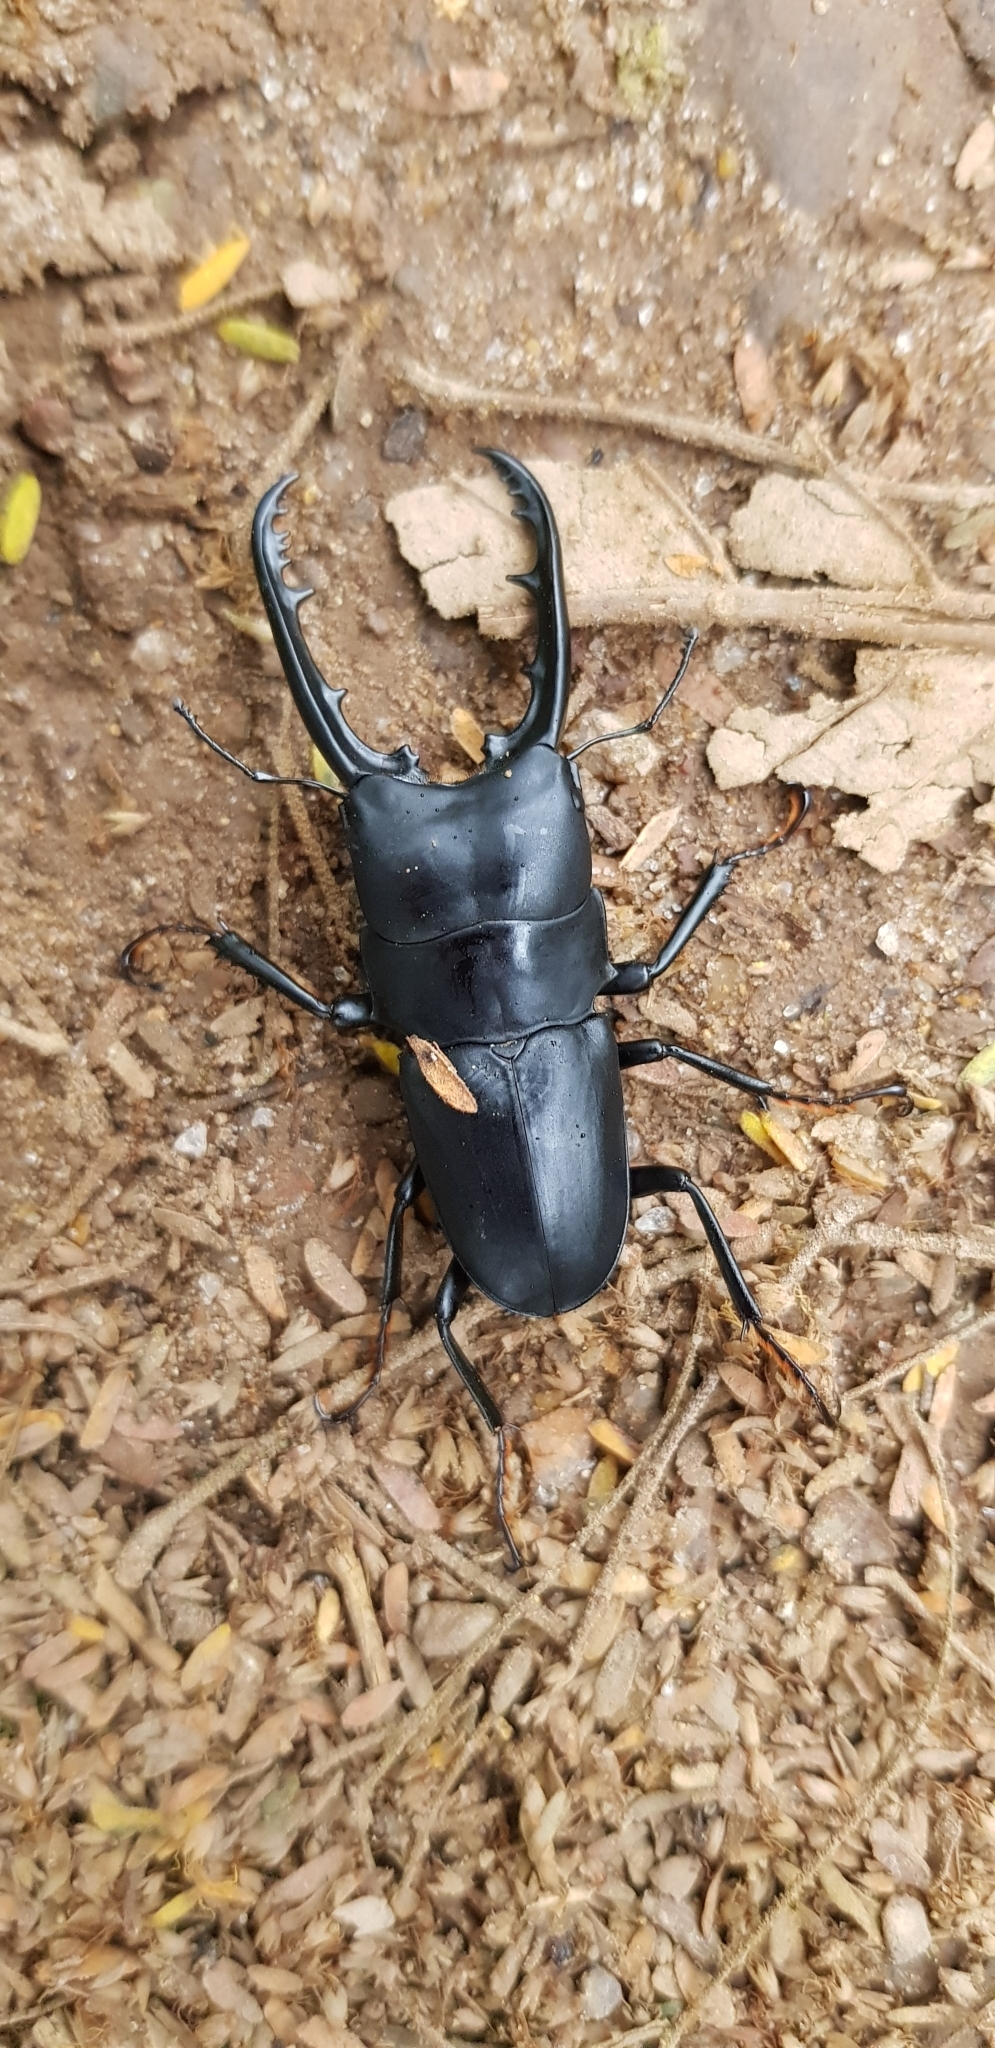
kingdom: Animalia
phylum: Arthropoda
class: Insecta
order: Coleoptera
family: Lucanidae
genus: Leptinopterus
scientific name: Leptinopterus paranensis
